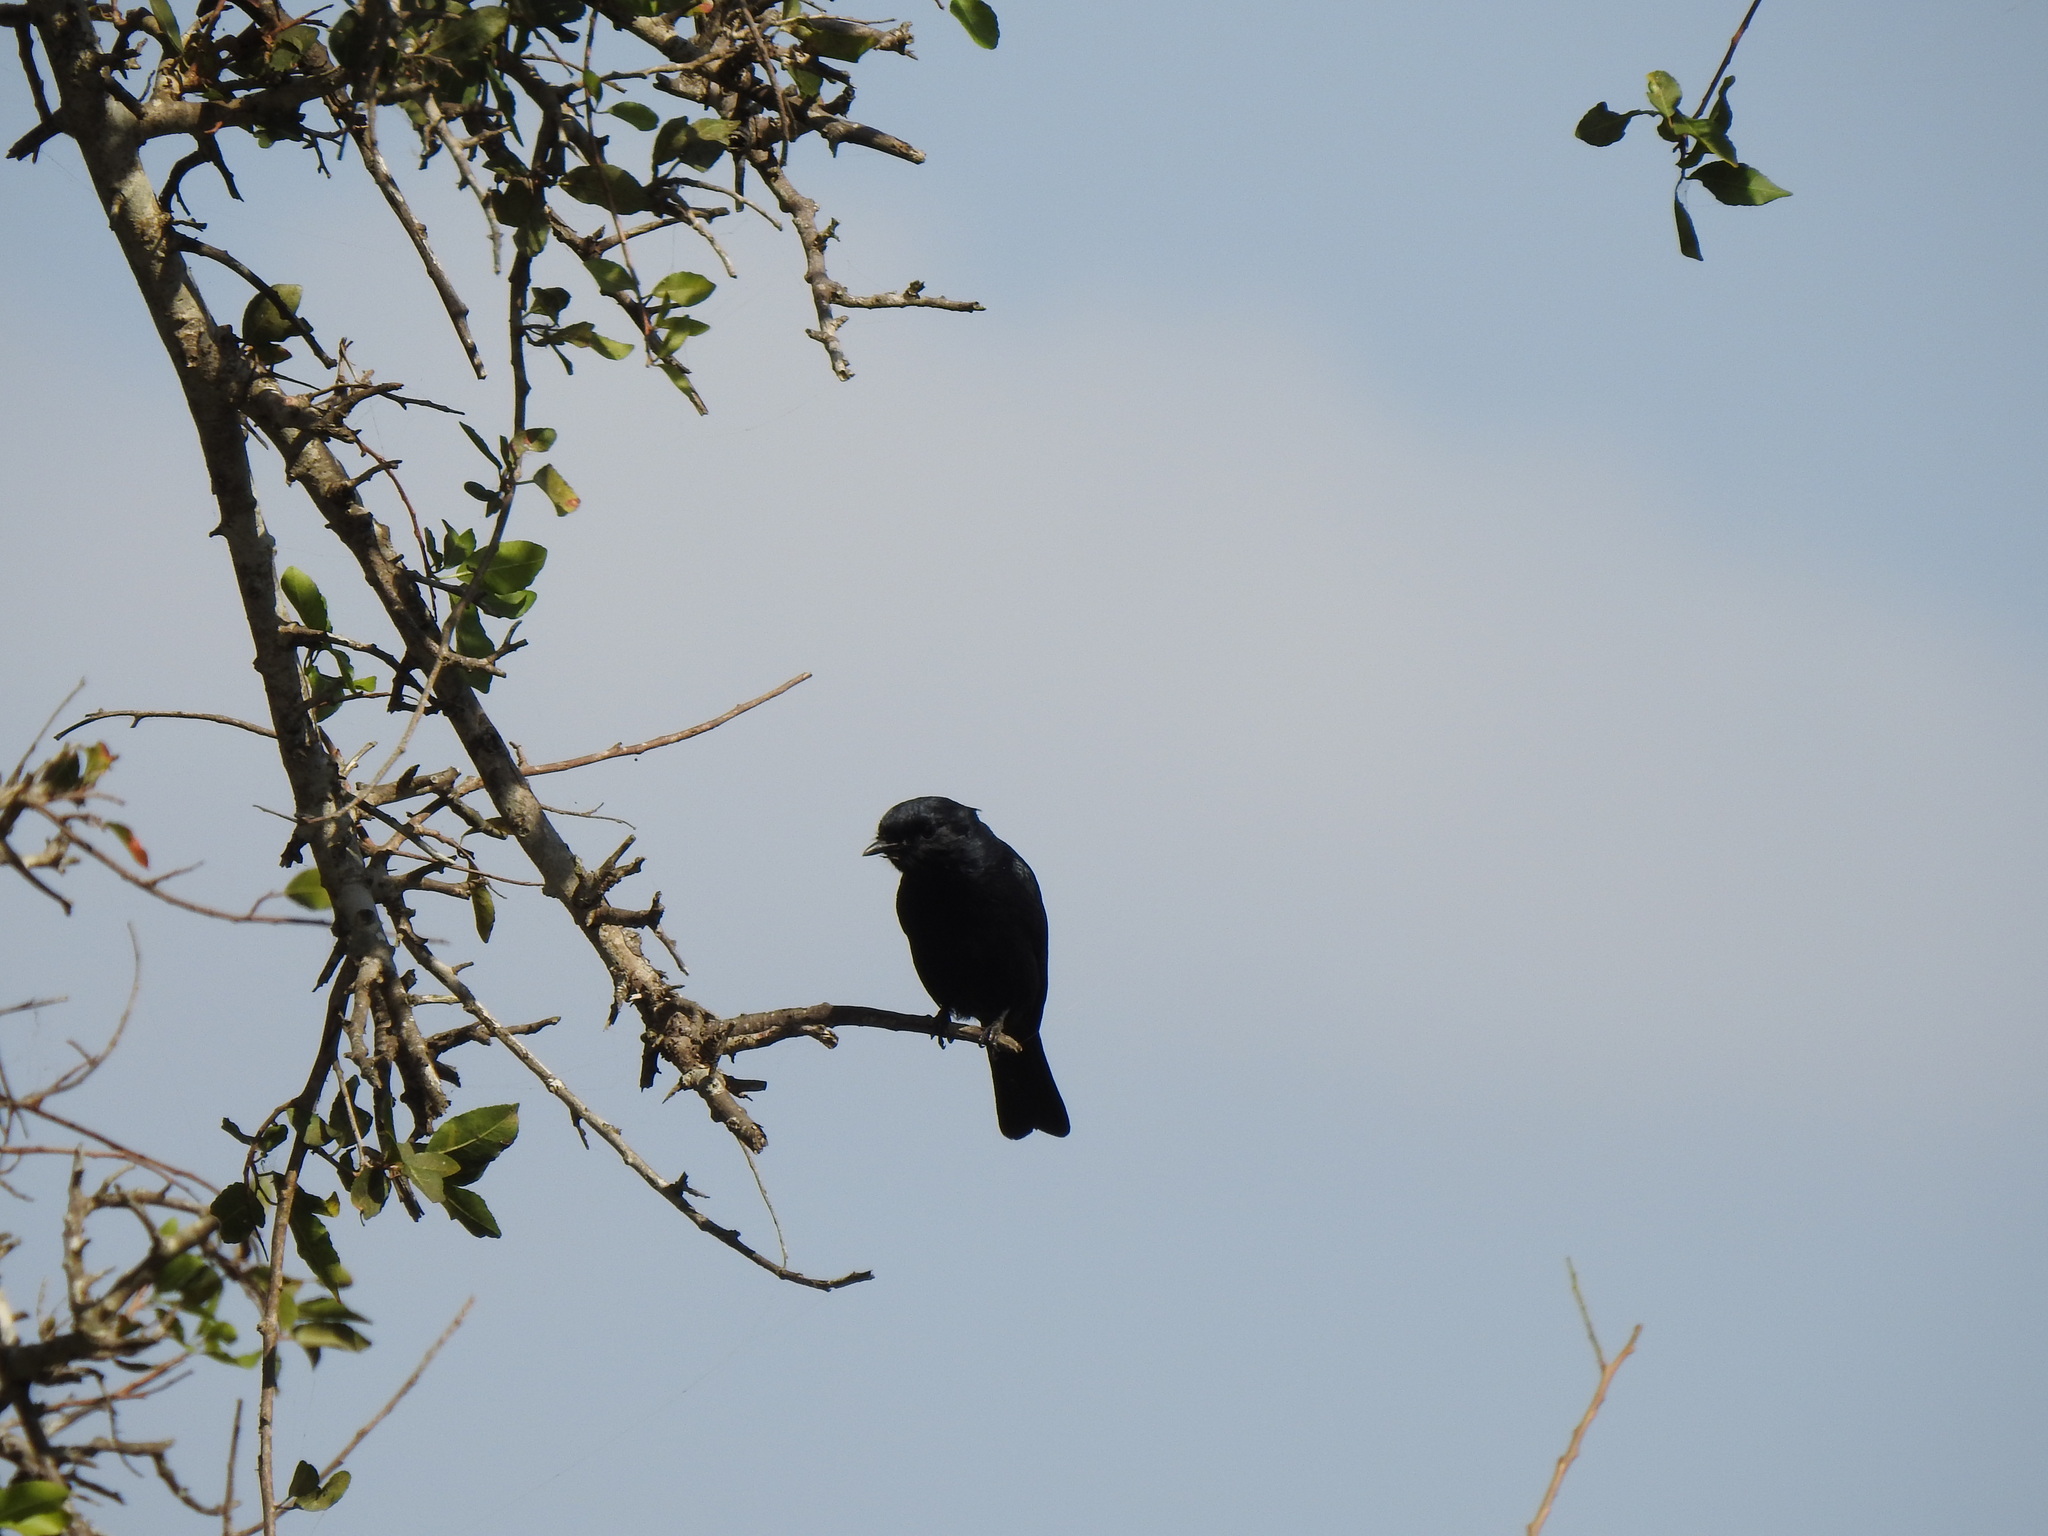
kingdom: Animalia
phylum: Chordata
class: Aves
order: Passeriformes
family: Muscicapidae
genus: Melaenornis
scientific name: Melaenornis pammelaina
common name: Southern black flycatcher
